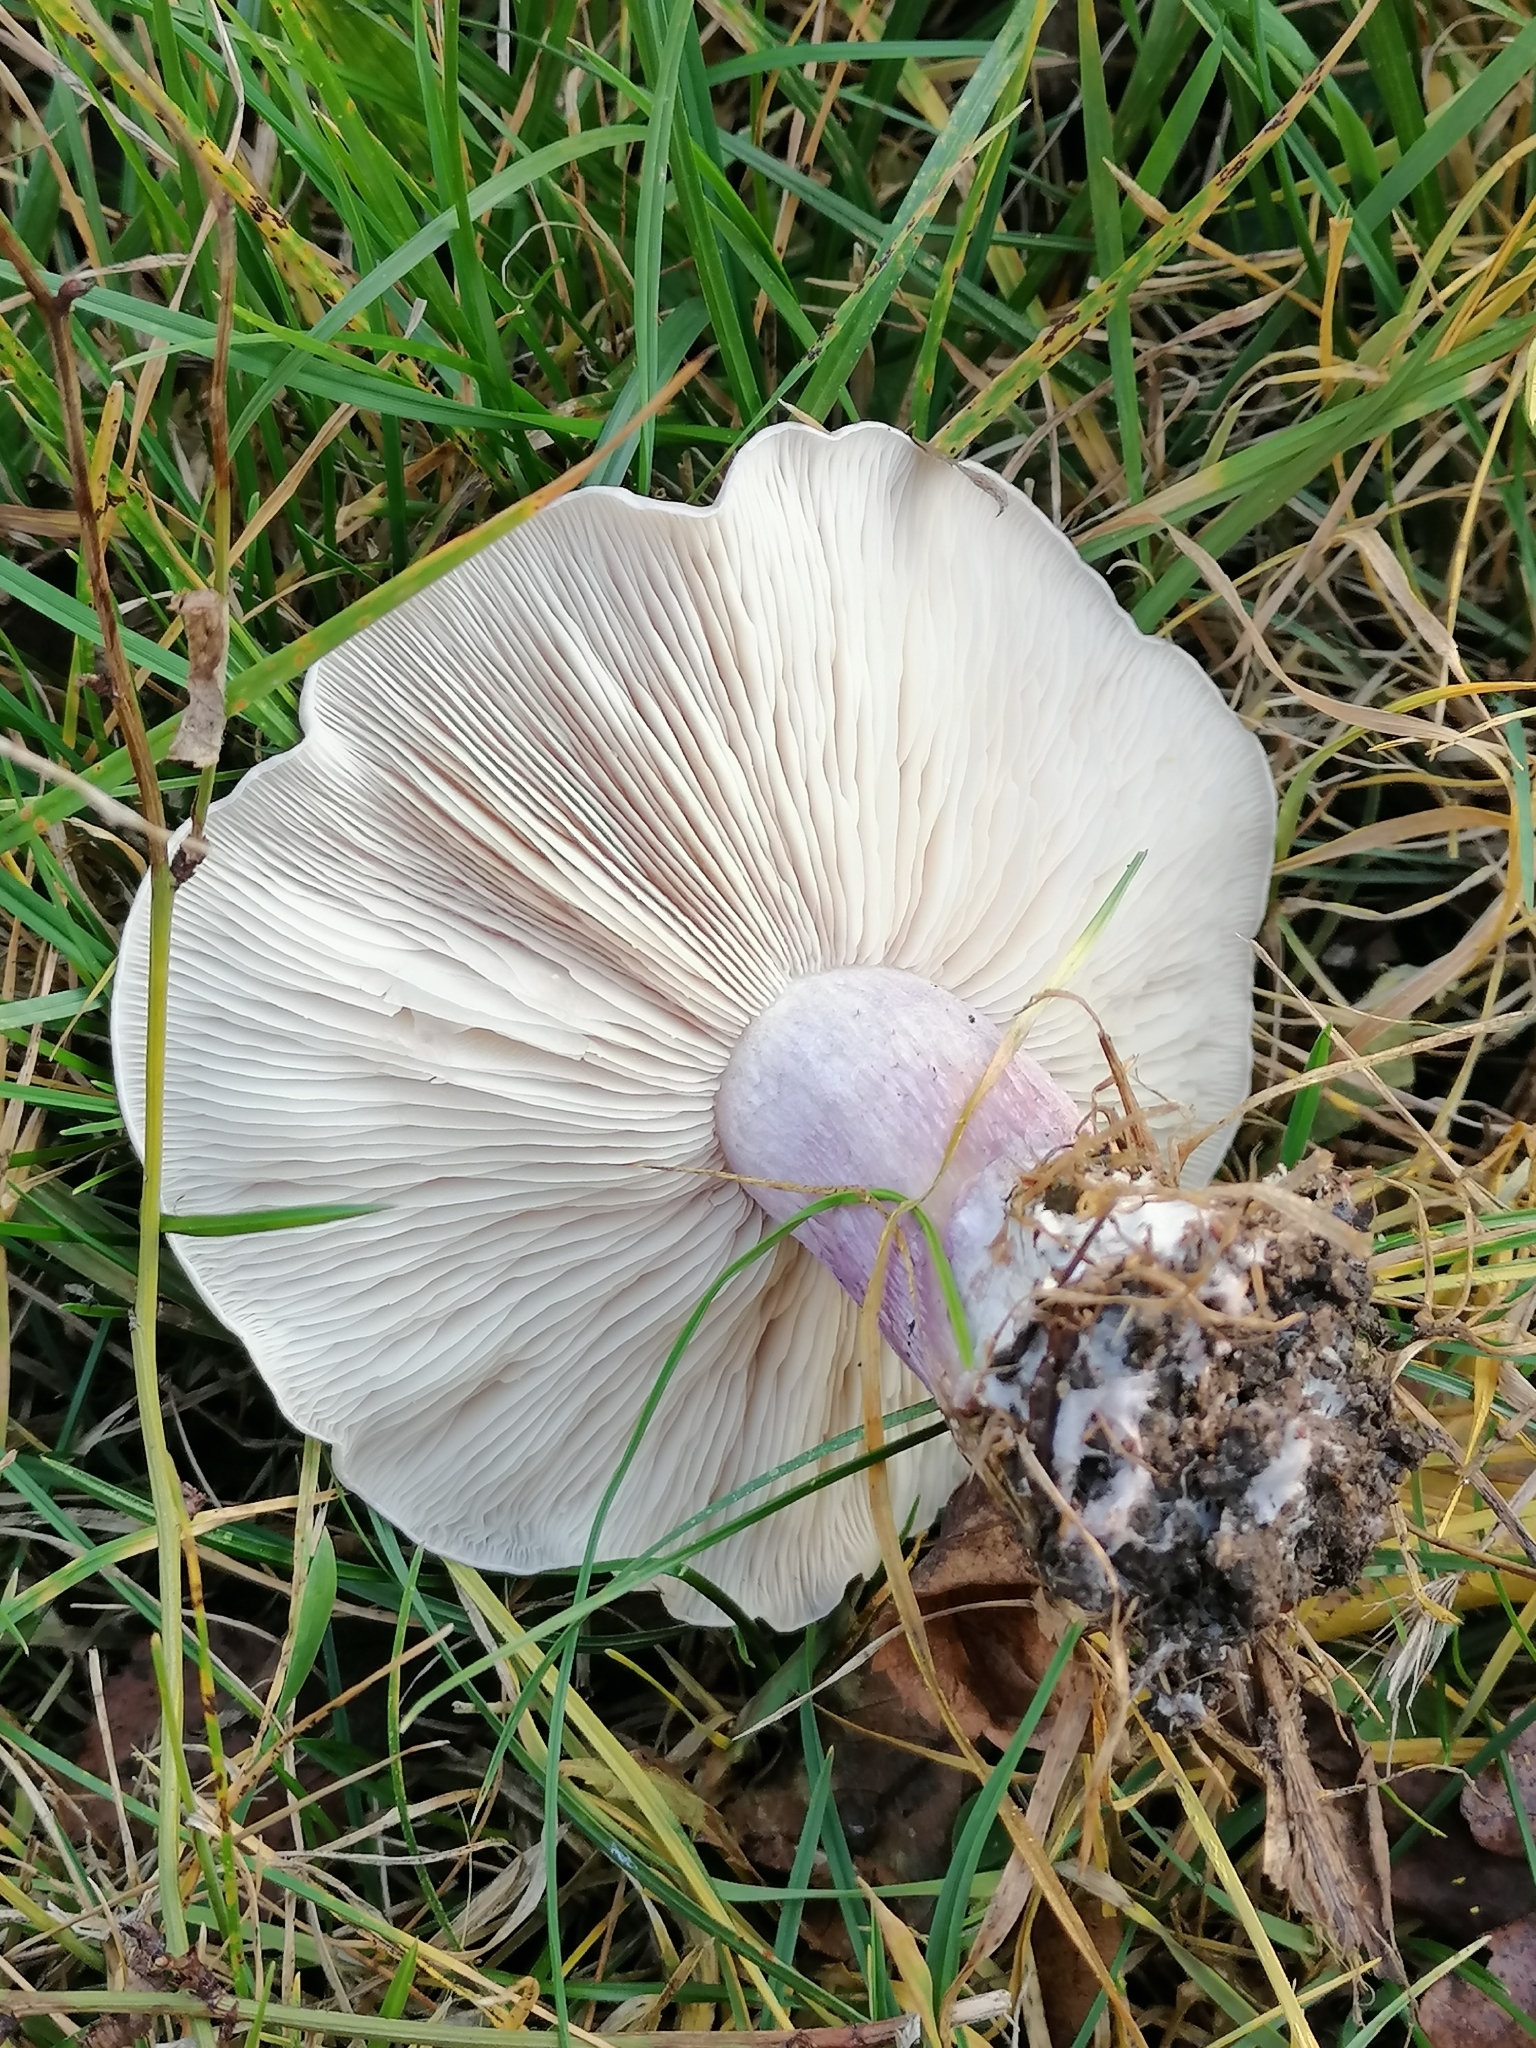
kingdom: Fungi
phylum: Basidiomycota
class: Agaricomycetes
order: Agaricales
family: Omphalotaceae
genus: Collybiopsis
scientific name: Collybiopsis peronata
